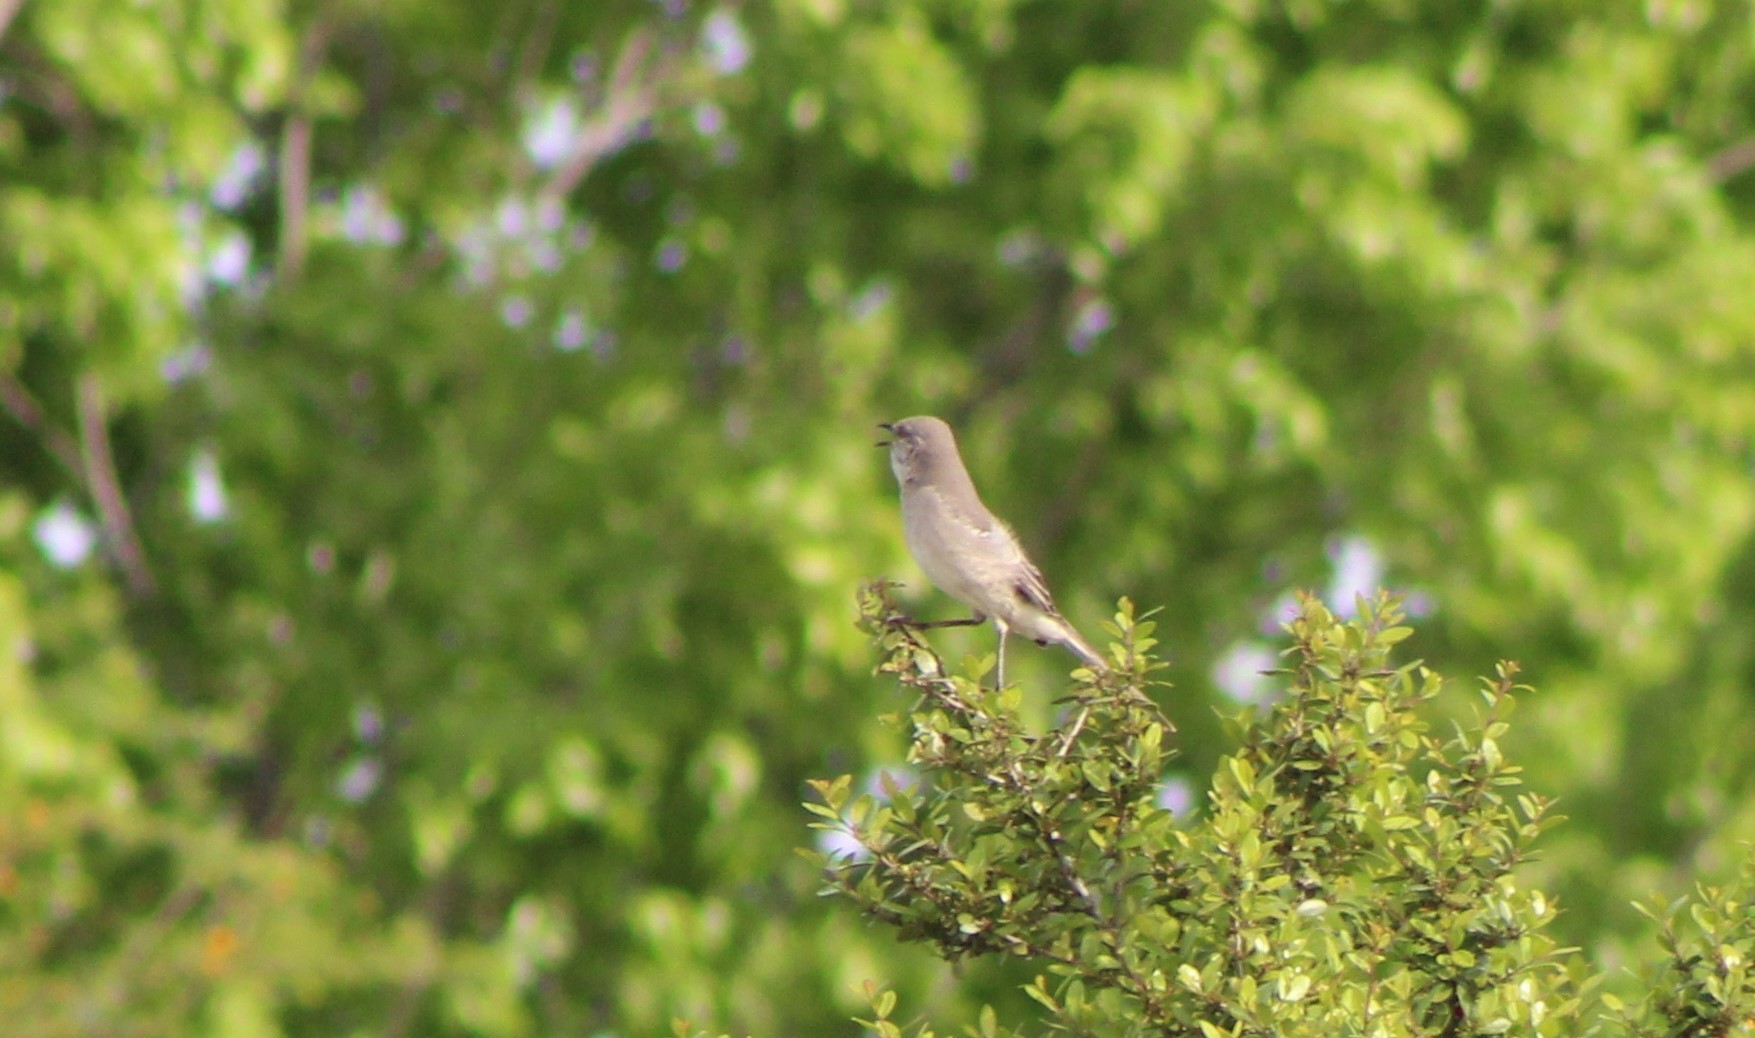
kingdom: Animalia
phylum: Chordata
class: Aves
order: Passeriformes
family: Mimidae
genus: Mimus
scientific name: Mimus polyglottos
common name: Northern mockingbird
